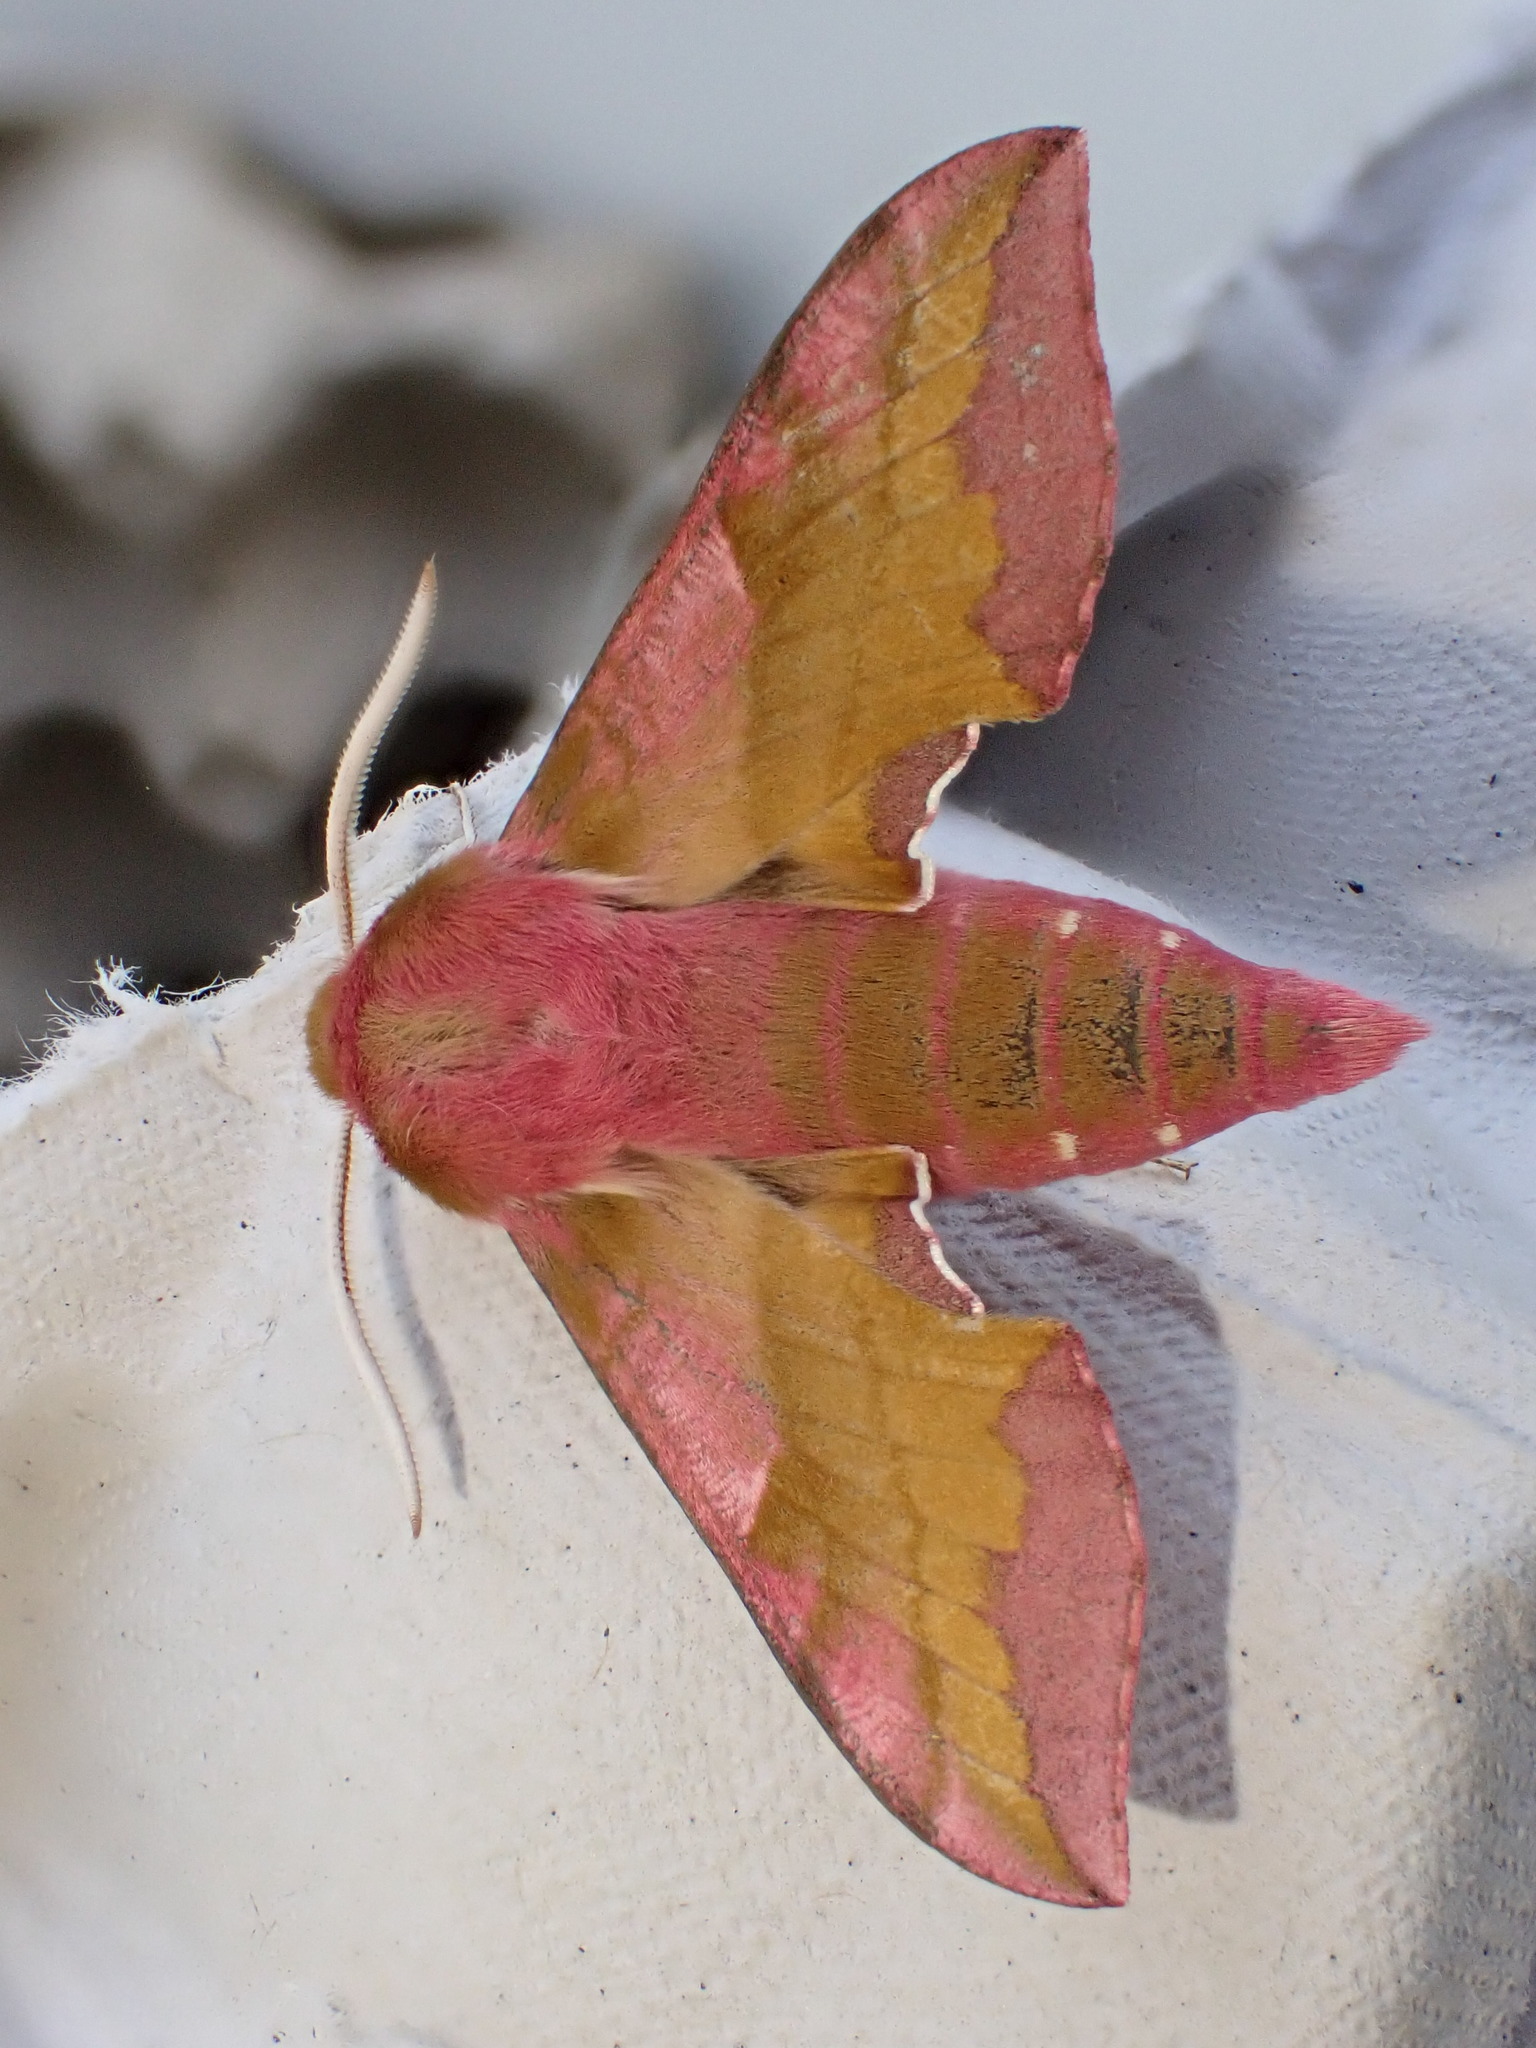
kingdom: Animalia
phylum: Arthropoda
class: Insecta
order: Lepidoptera
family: Sphingidae
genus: Deilephila
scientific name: Deilephila porcellus
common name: Small elephant hawk-moth
